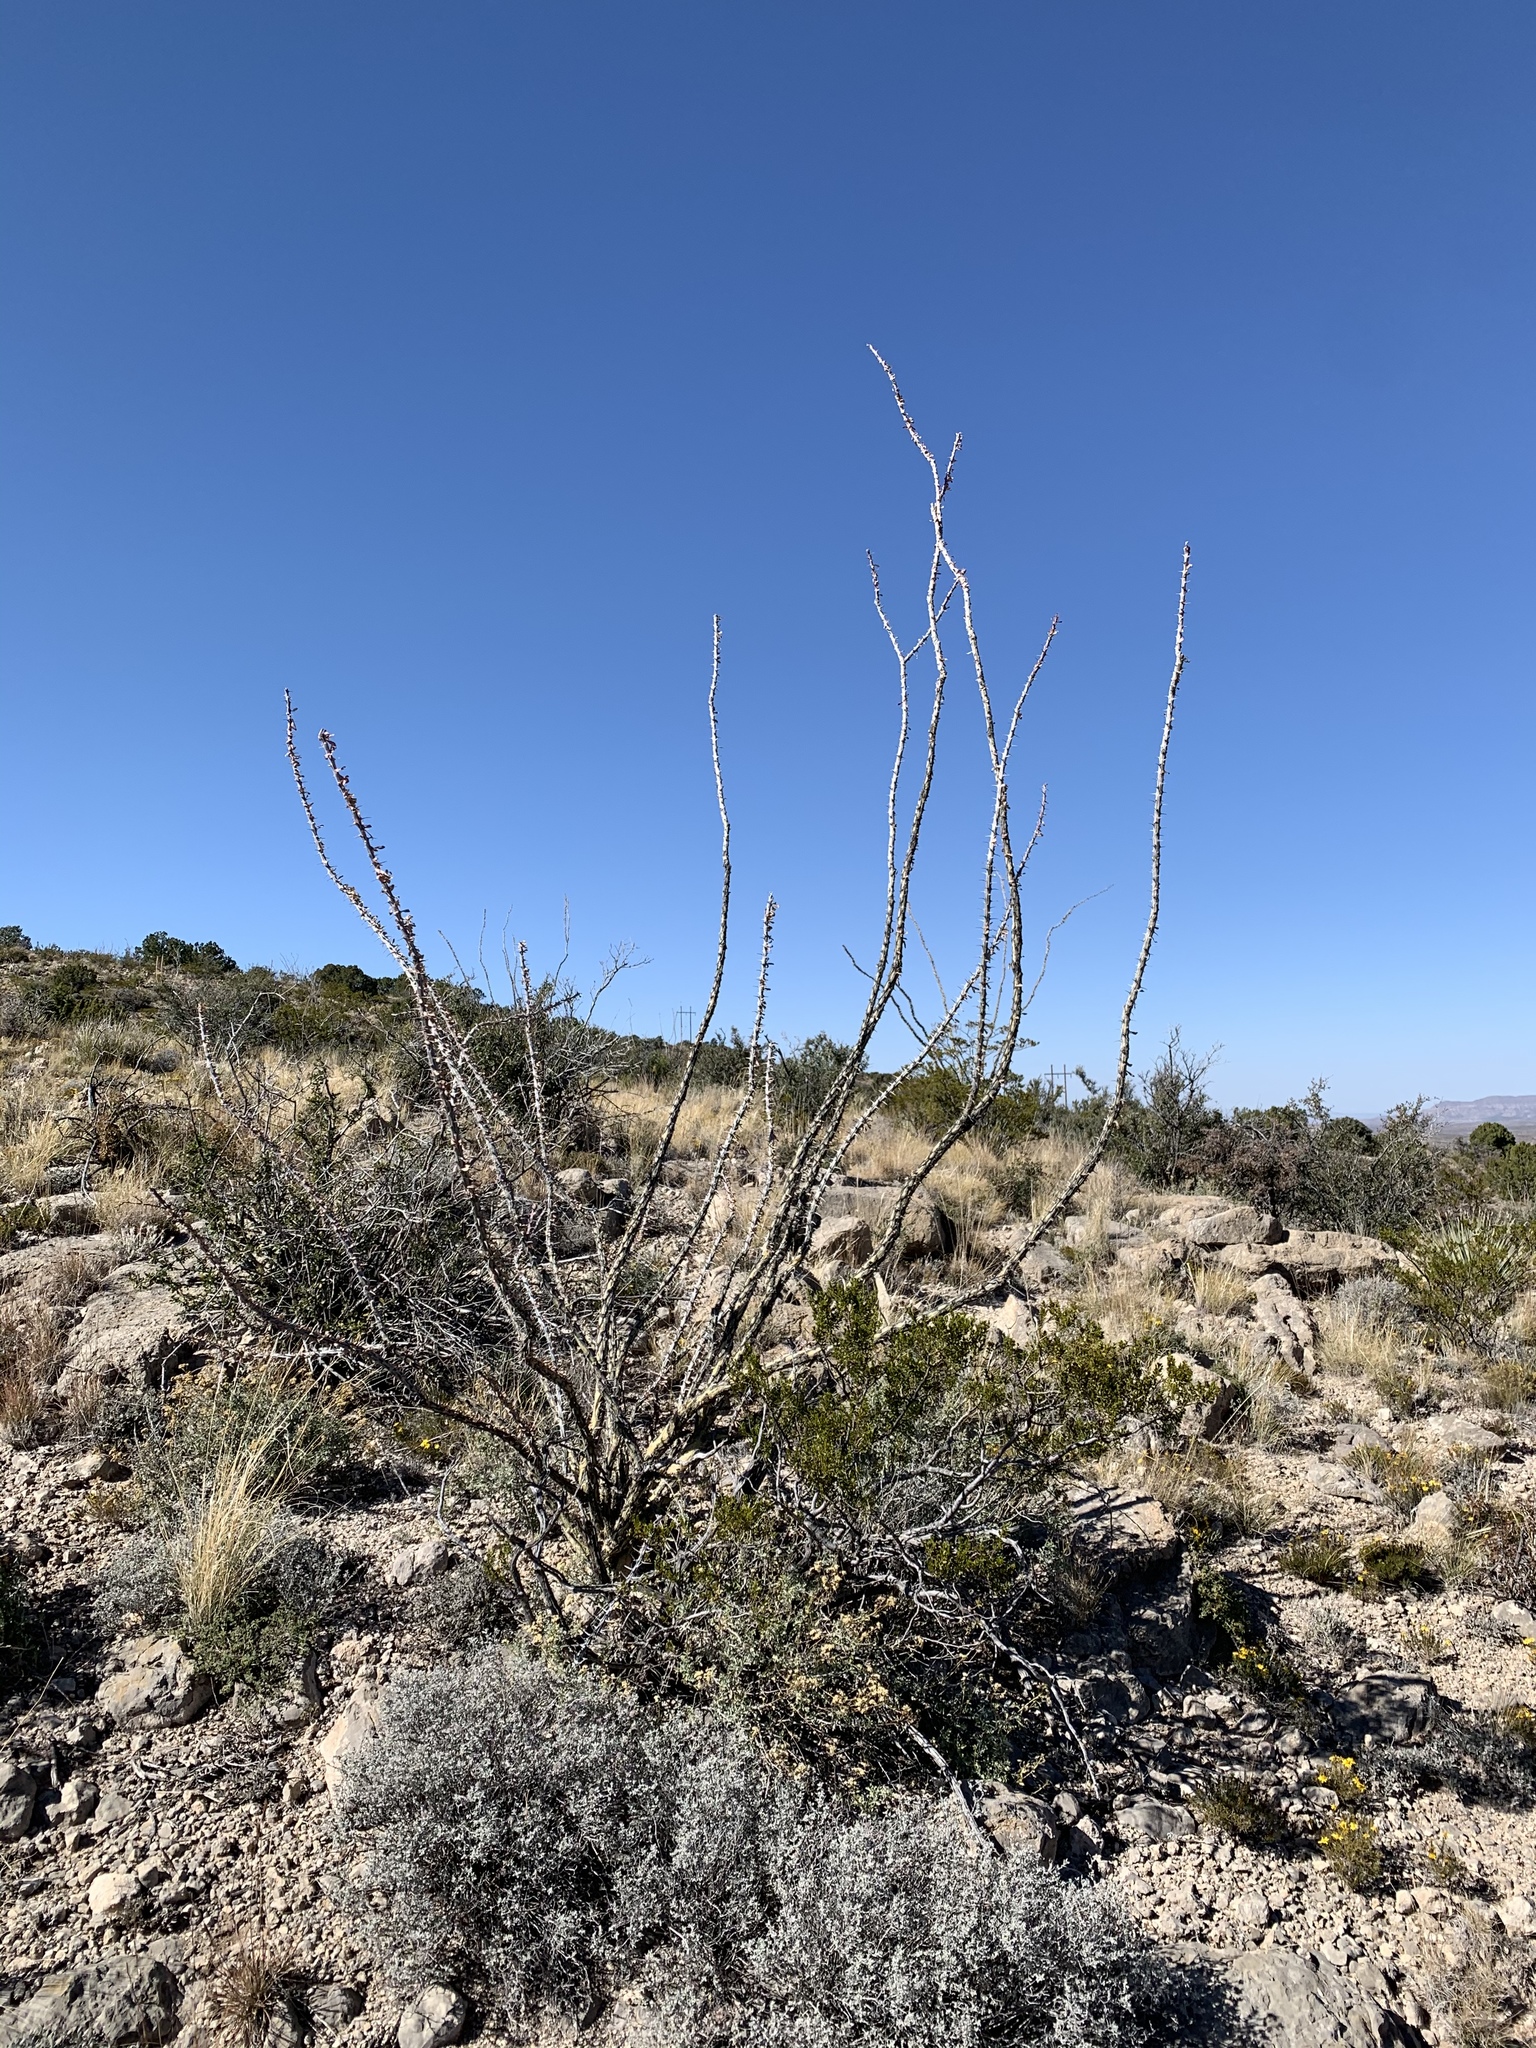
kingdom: Plantae
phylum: Tracheophyta
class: Magnoliopsida
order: Ericales
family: Fouquieriaceae
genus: Fouquieria
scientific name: Fouquieria splendens
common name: Vine-cactus
